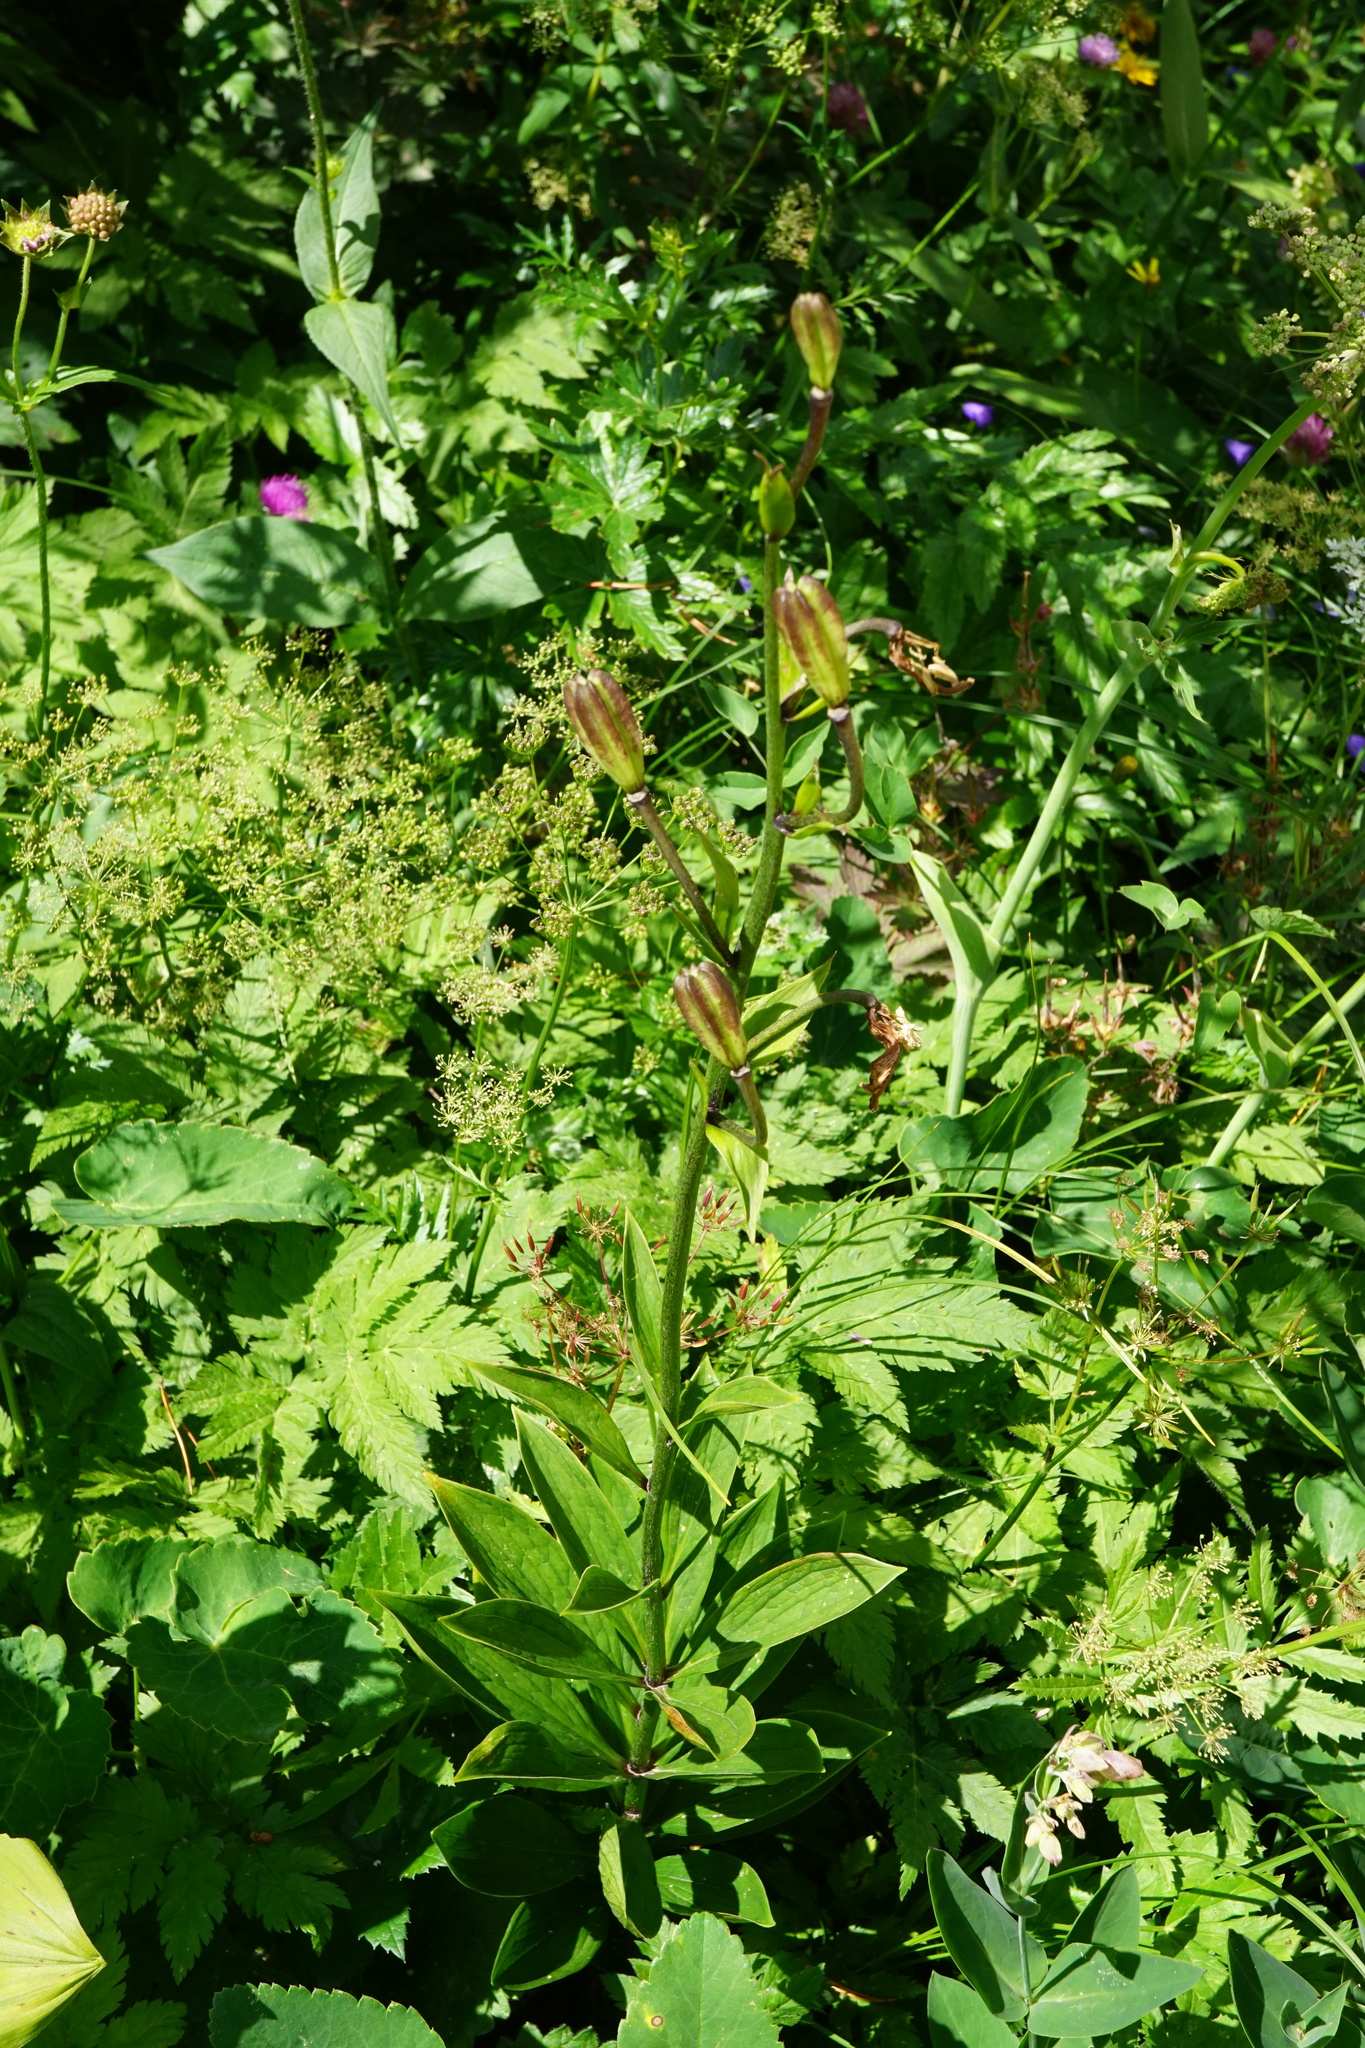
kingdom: Plantae
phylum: Tracheophyta
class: Liliopsida
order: Liliales
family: Liliaceae
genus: Lilium
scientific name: Lilium martagon
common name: Martagon lily
